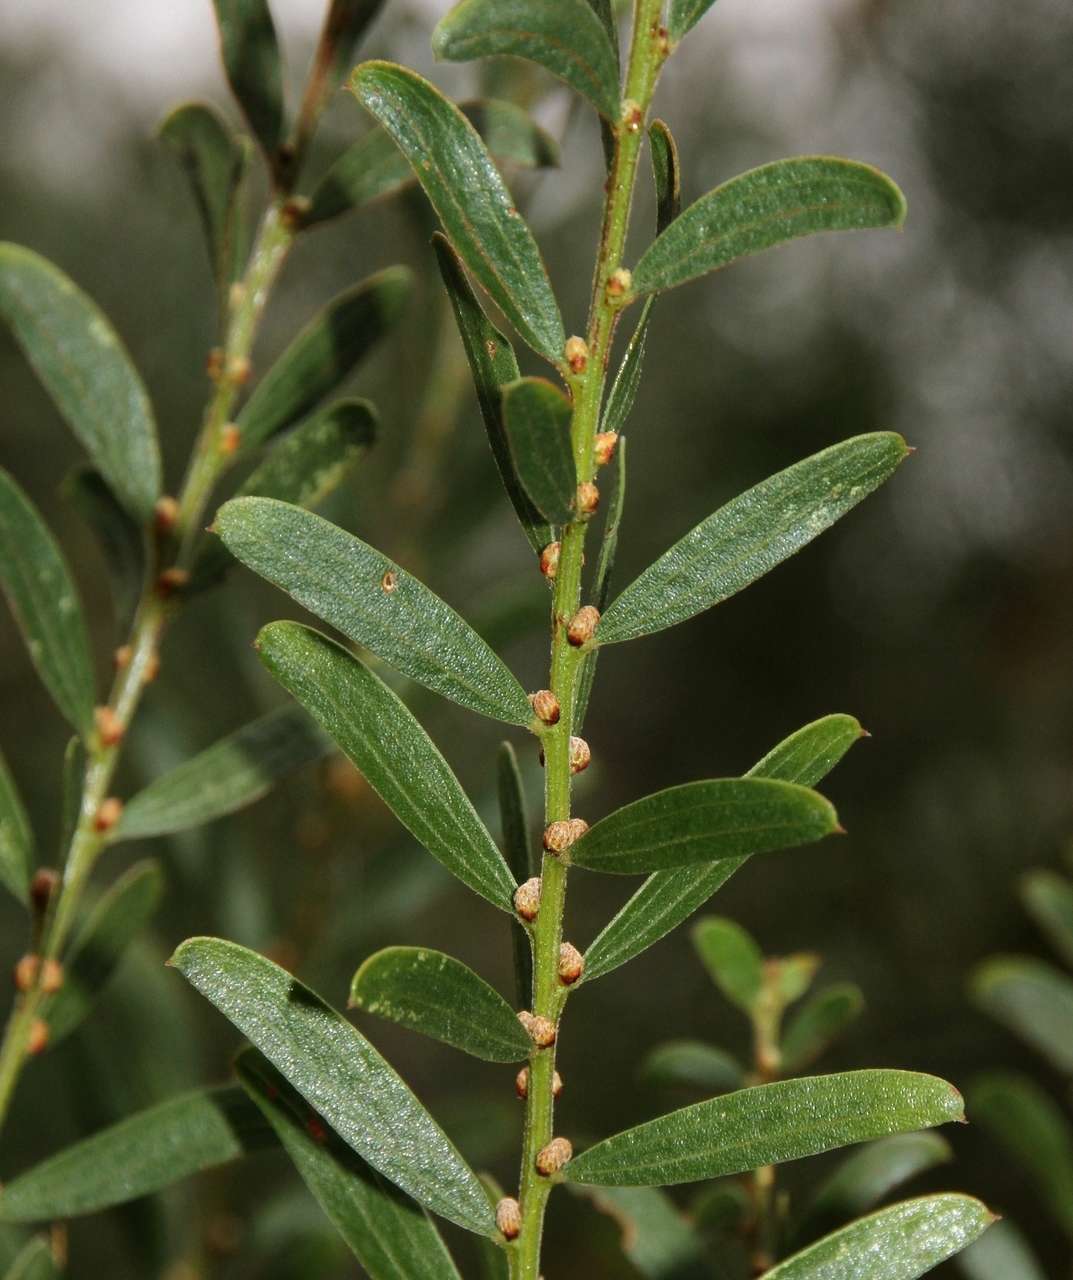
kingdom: Plantae
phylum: Tracheophyta
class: Magnoliopsida
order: Fabales
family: Fabaceae
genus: Acacia
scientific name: Acacia rostriformis
